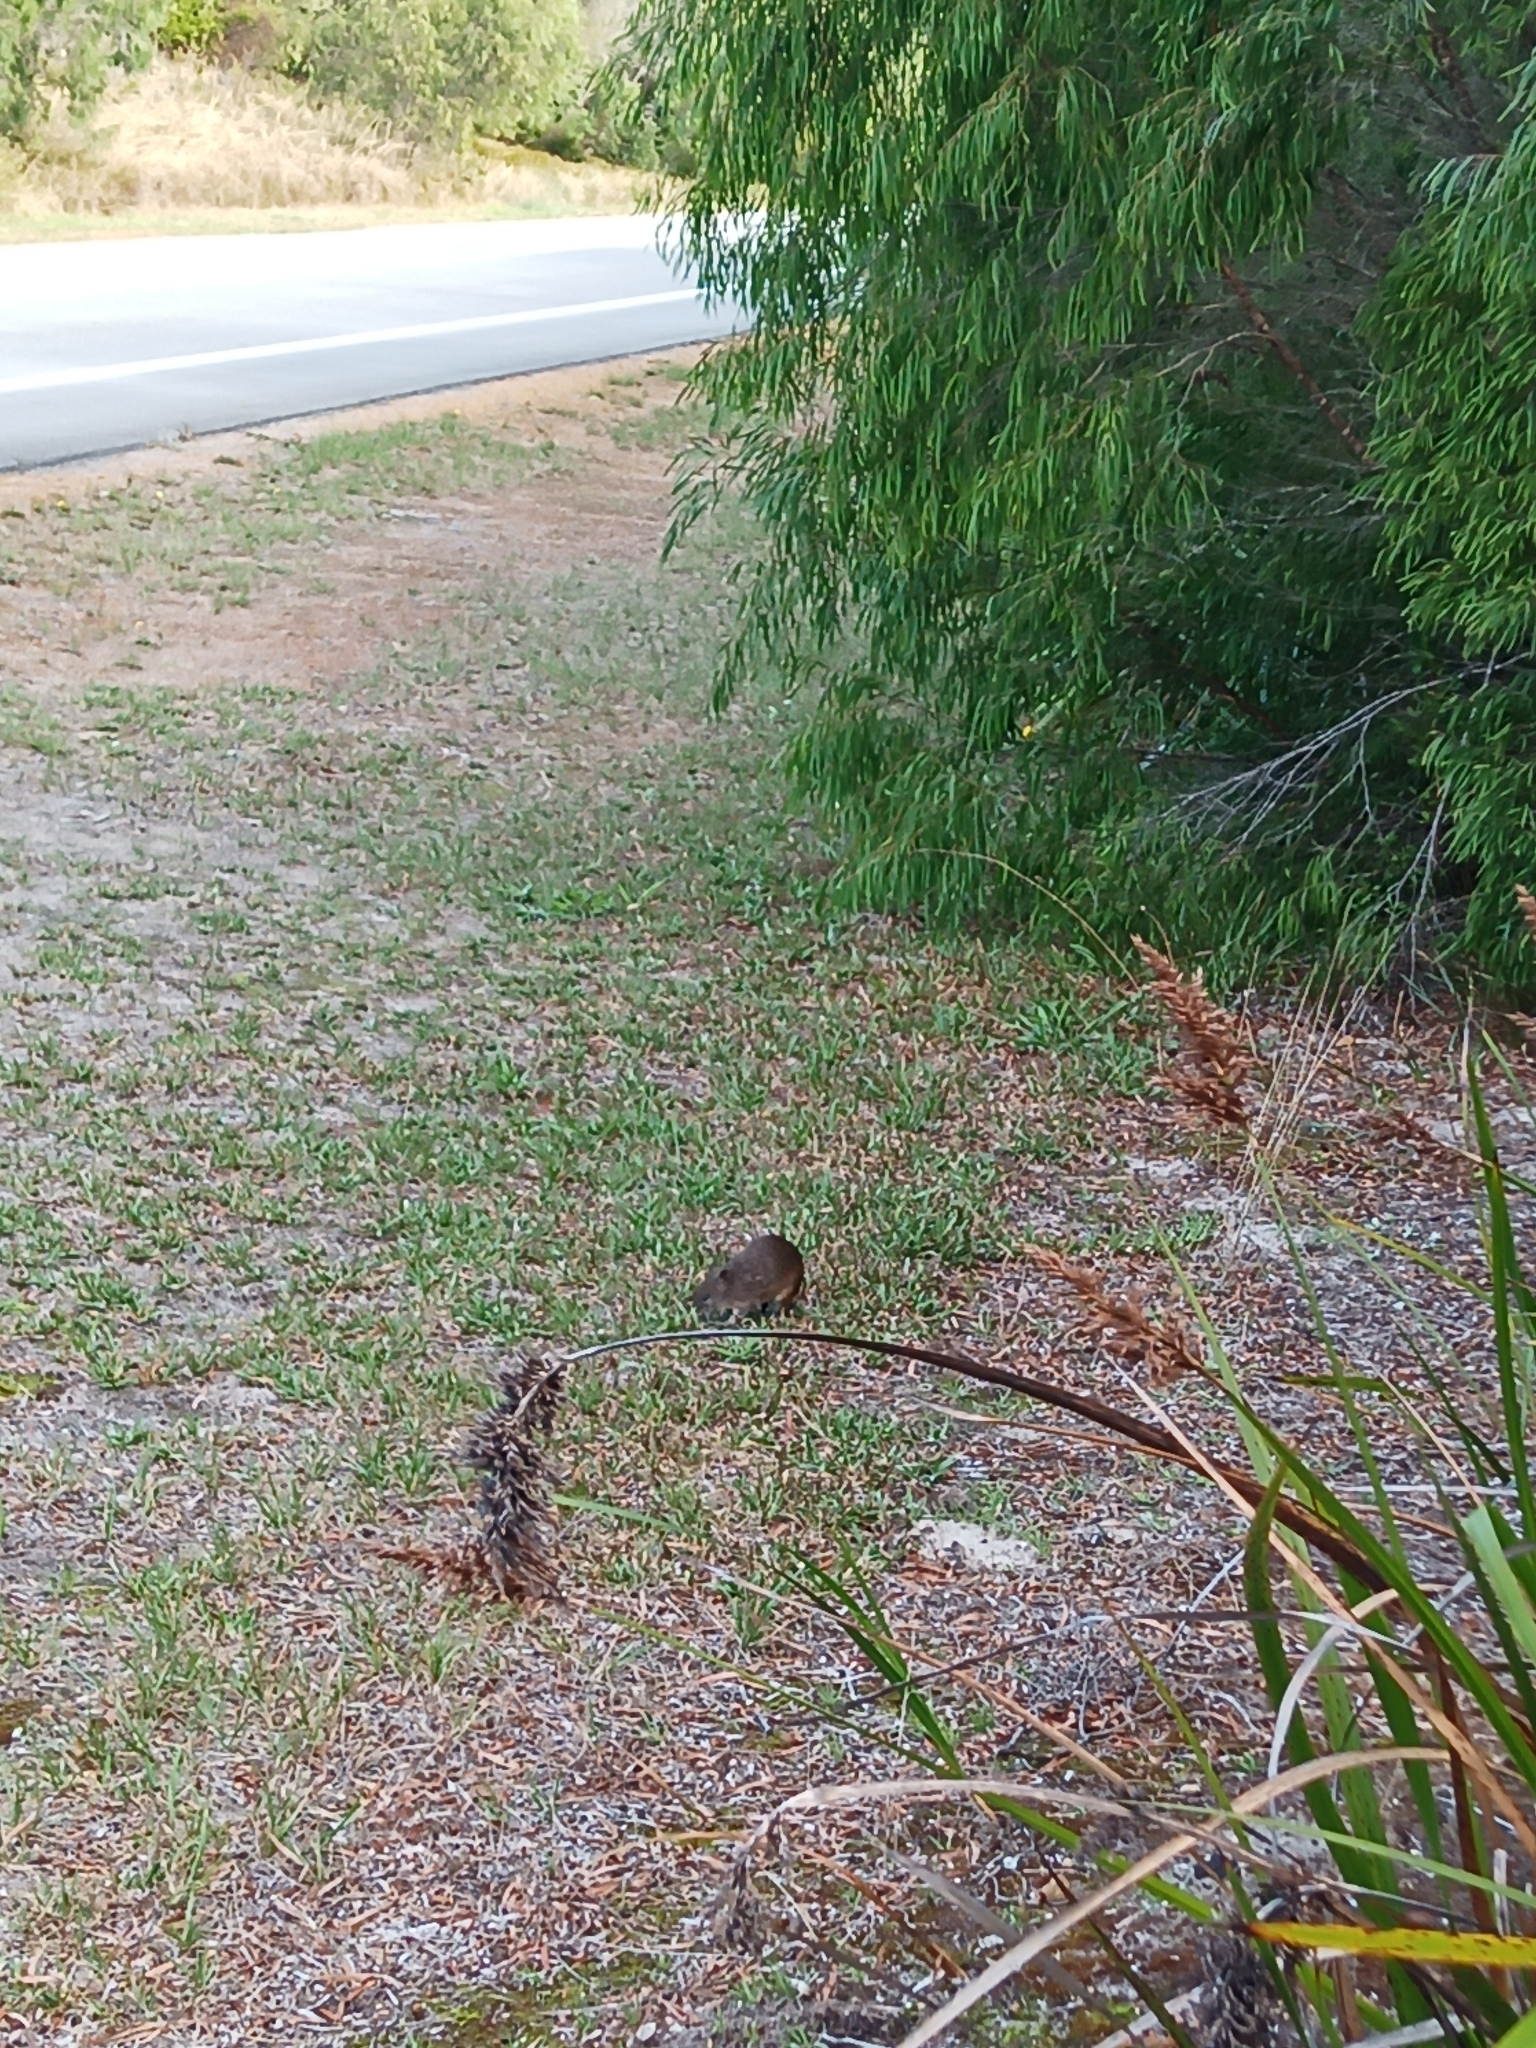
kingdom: Animalia
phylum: Chordata
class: Mammalia
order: Peramelemorphia
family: Peramelidae
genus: Isoodon
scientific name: Isoodon fusciventer
